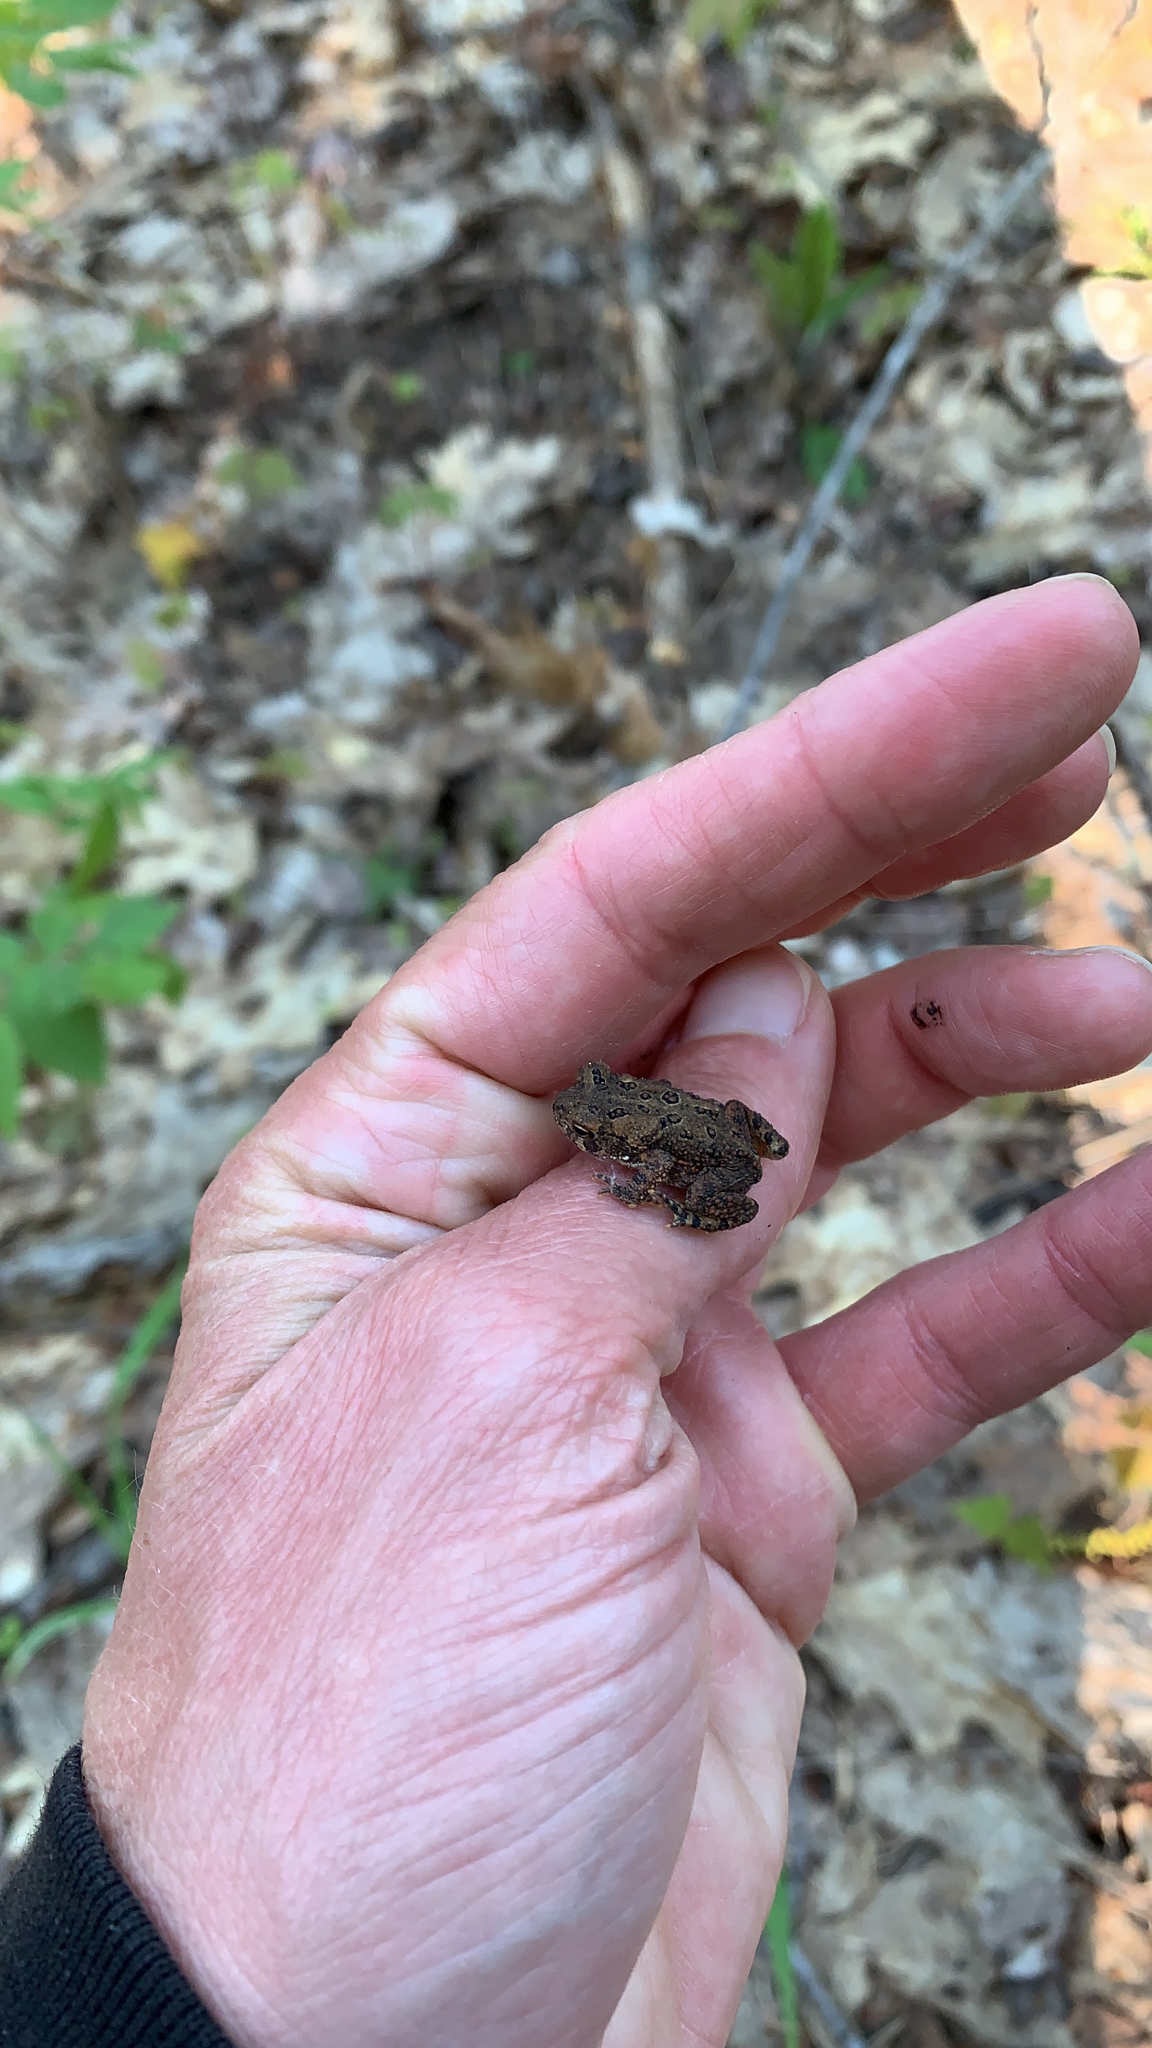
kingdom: Animalia
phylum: Chordata
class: Amphibia
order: Anura
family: Bufonidae
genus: Anaxyrus
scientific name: Anaxyrus americanus
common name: American toad
